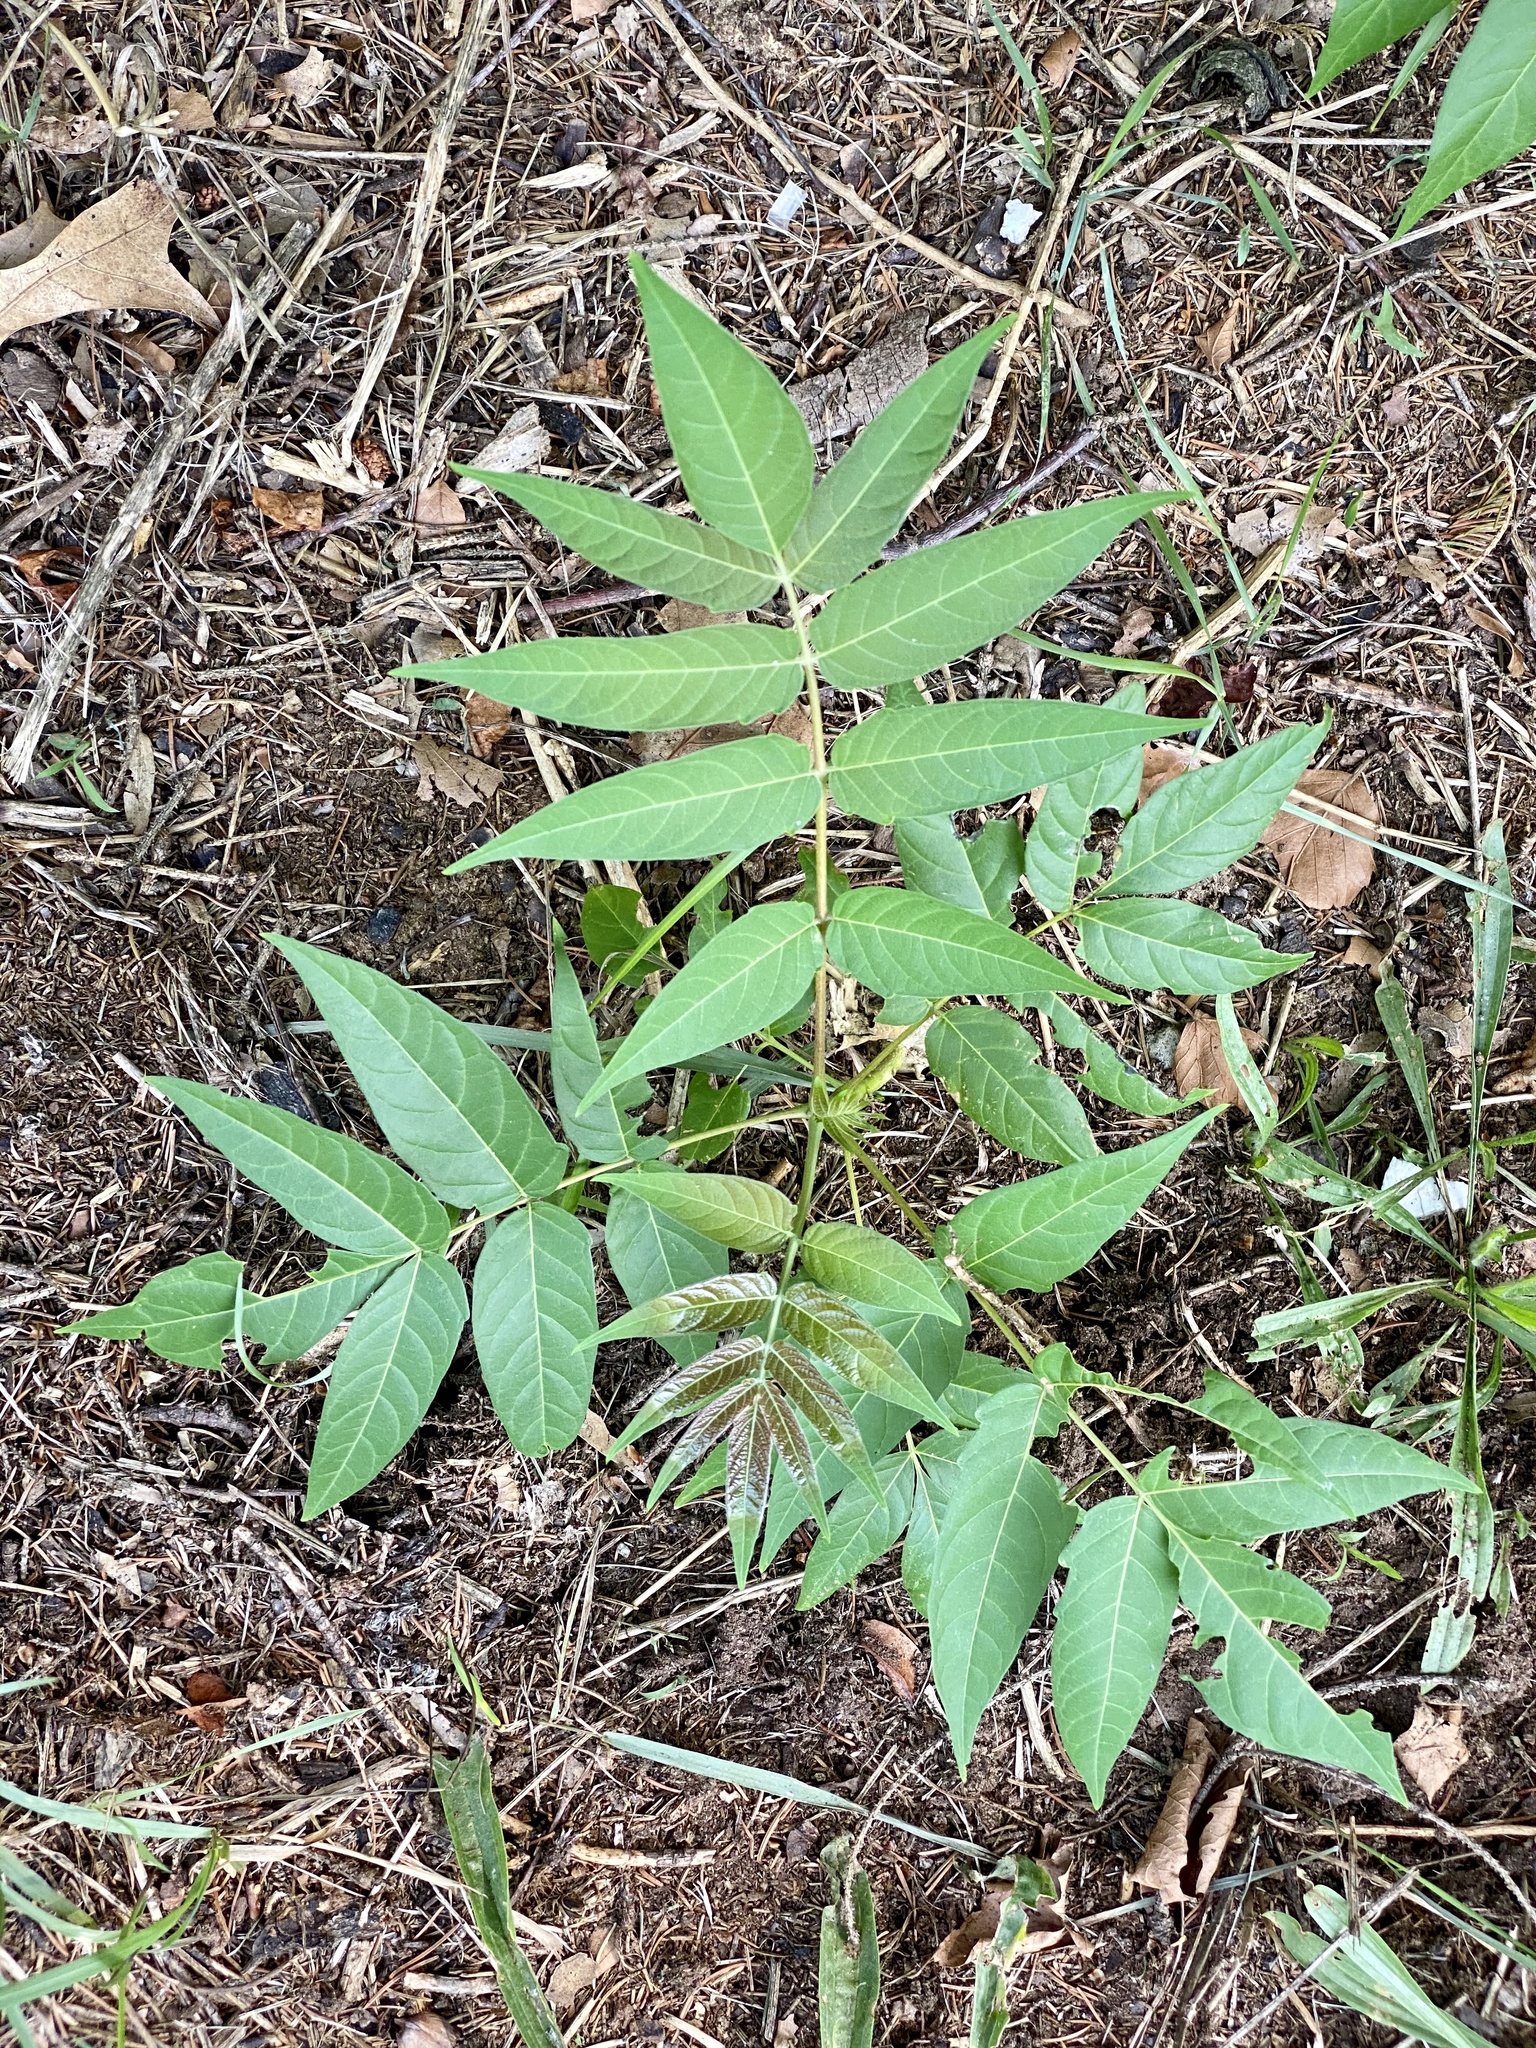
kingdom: Plantae
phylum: Tracheophyta
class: Magnoliopsida
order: Sapindales
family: Simaroubaceae
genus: Ailanthus
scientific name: Ailanthus altissima
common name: Tree-of-heaven
